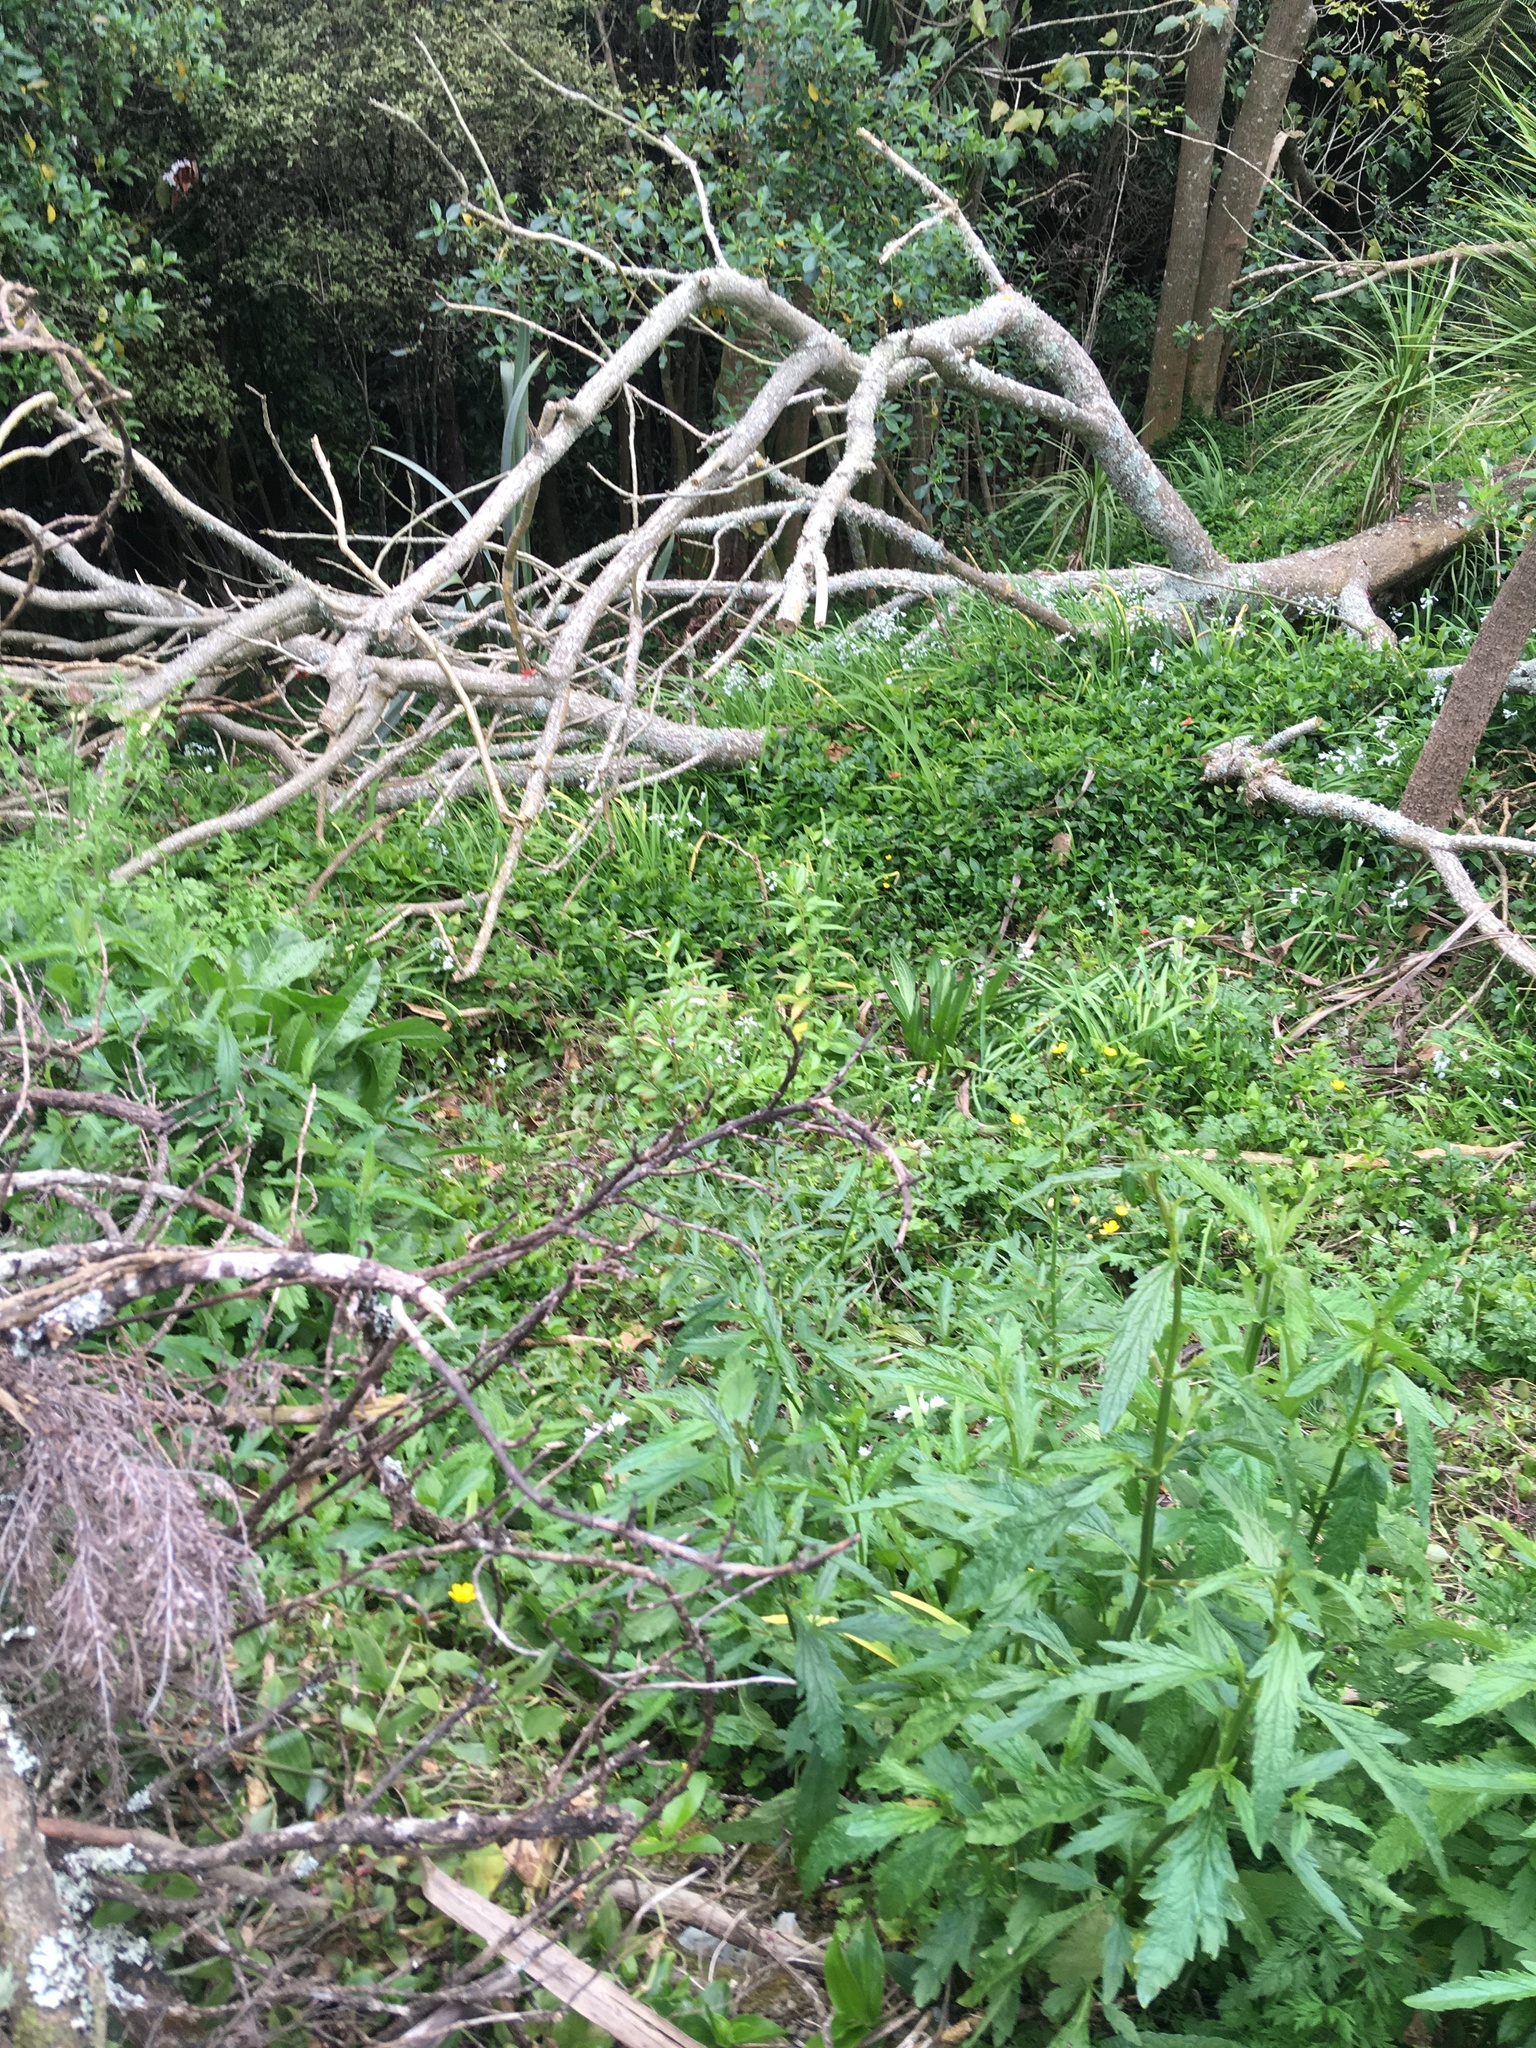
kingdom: Plantae
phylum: Tracheophyta
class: Magnoliopsida
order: Lamiales
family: Verbenaceae
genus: Verbena
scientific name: Verbena litoralis
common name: Seashore vervain
